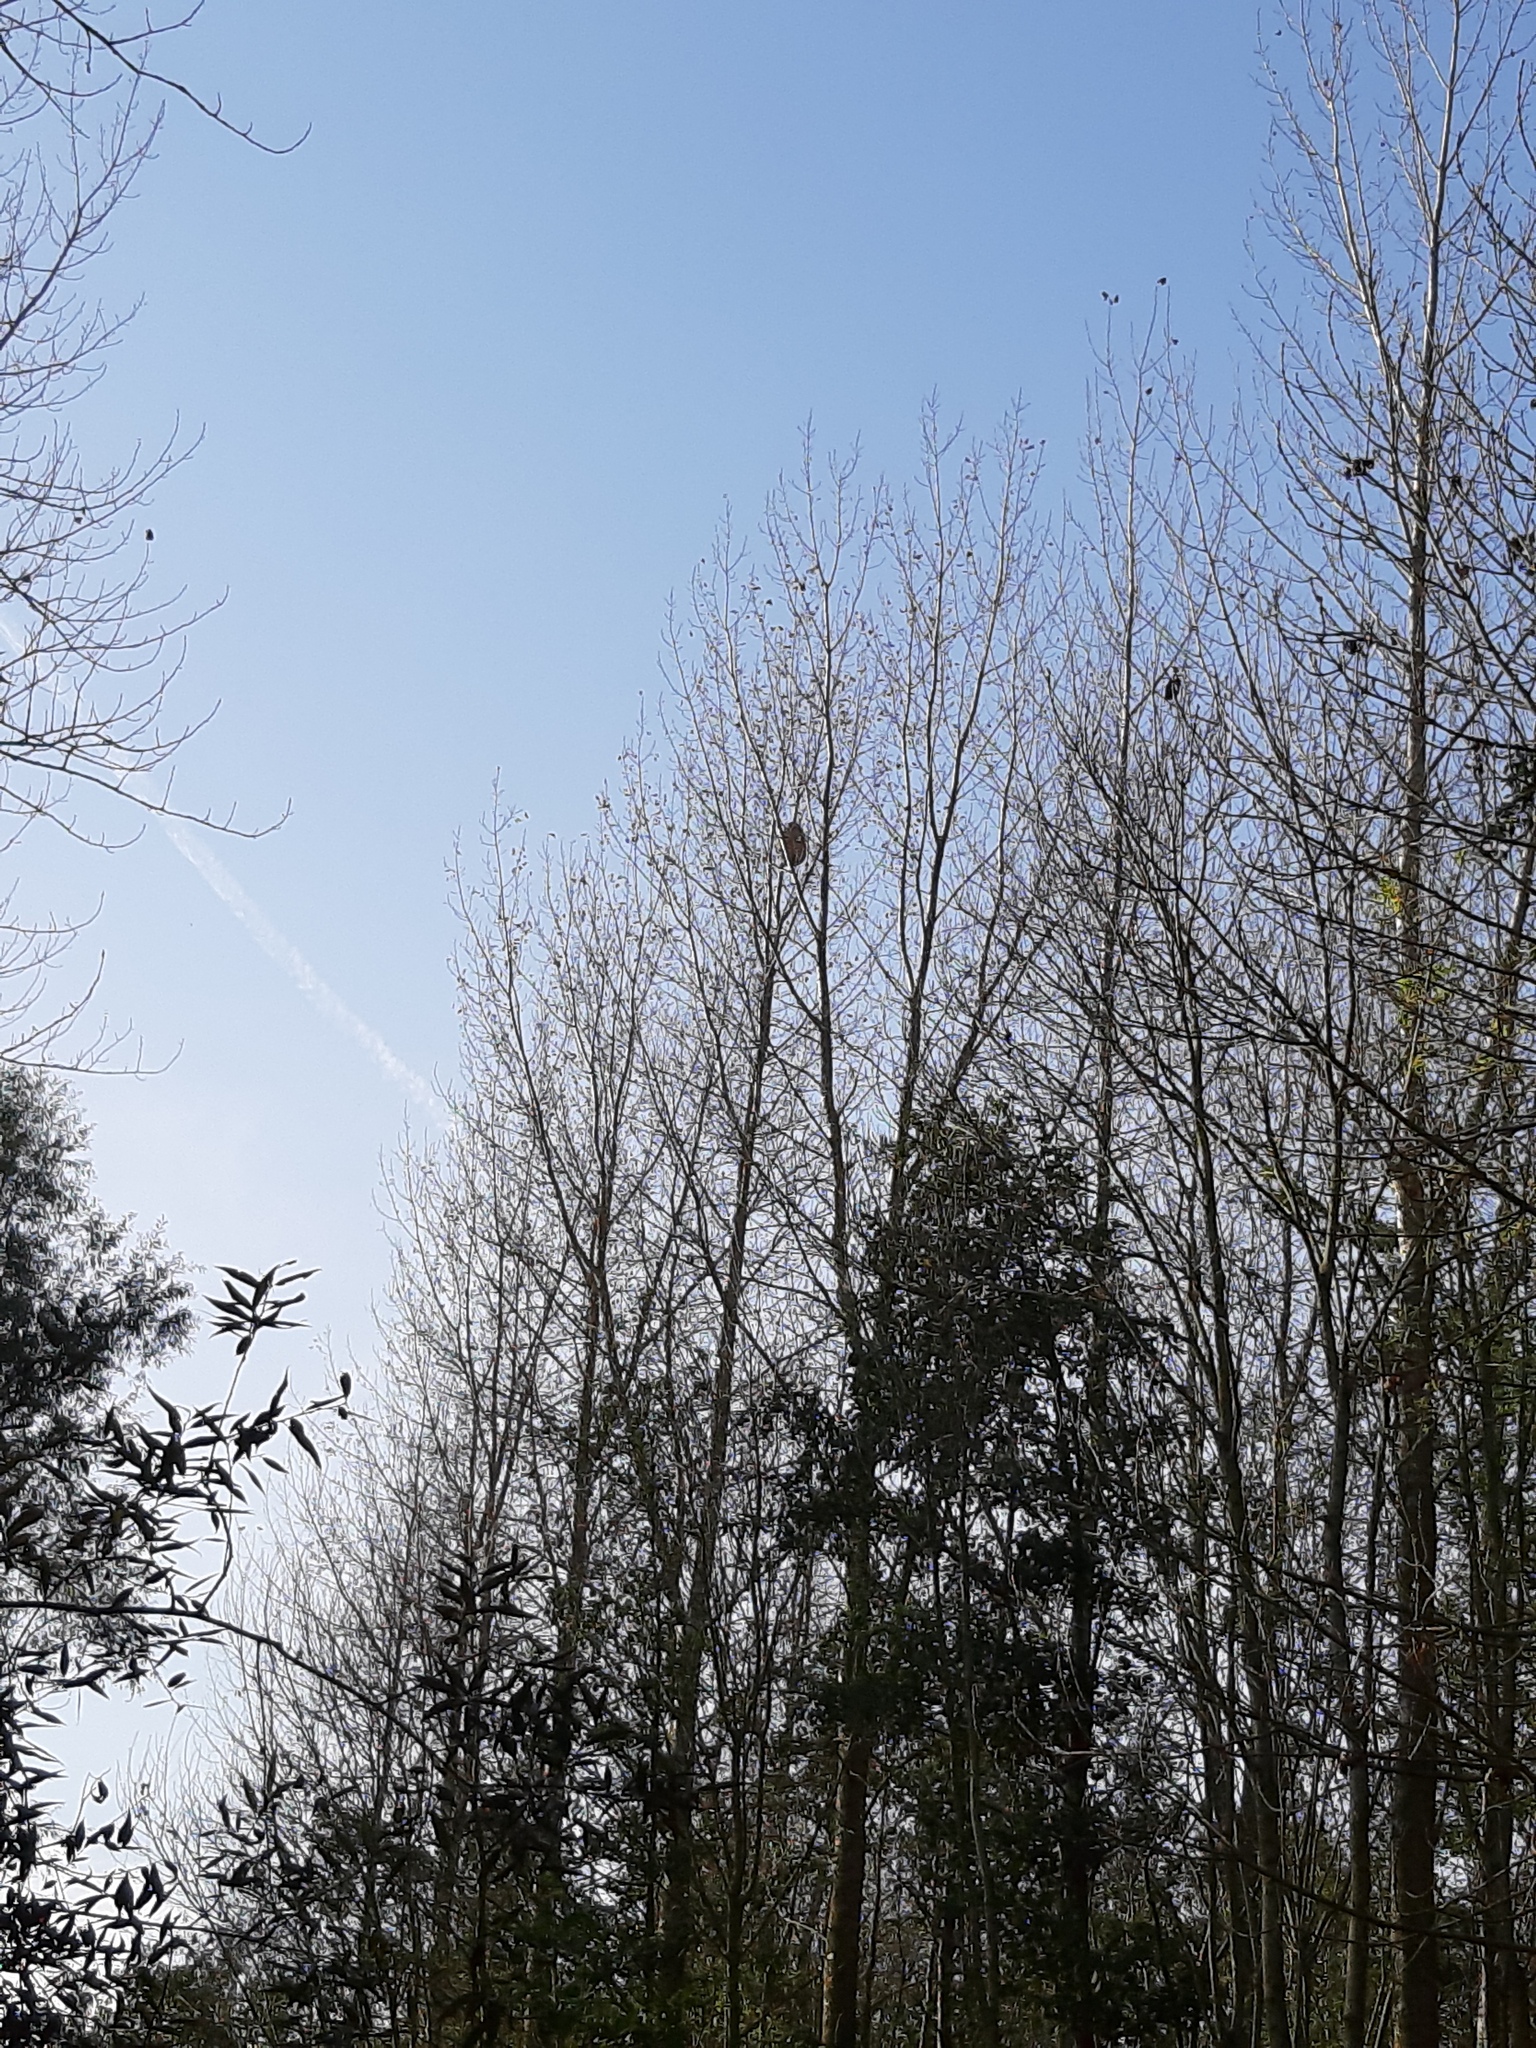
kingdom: Animalia
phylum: Arthropoda
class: Insecta
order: Hymenoptera
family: Vespidae
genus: Vespa
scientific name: Vespa velutina
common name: Asian hornet
